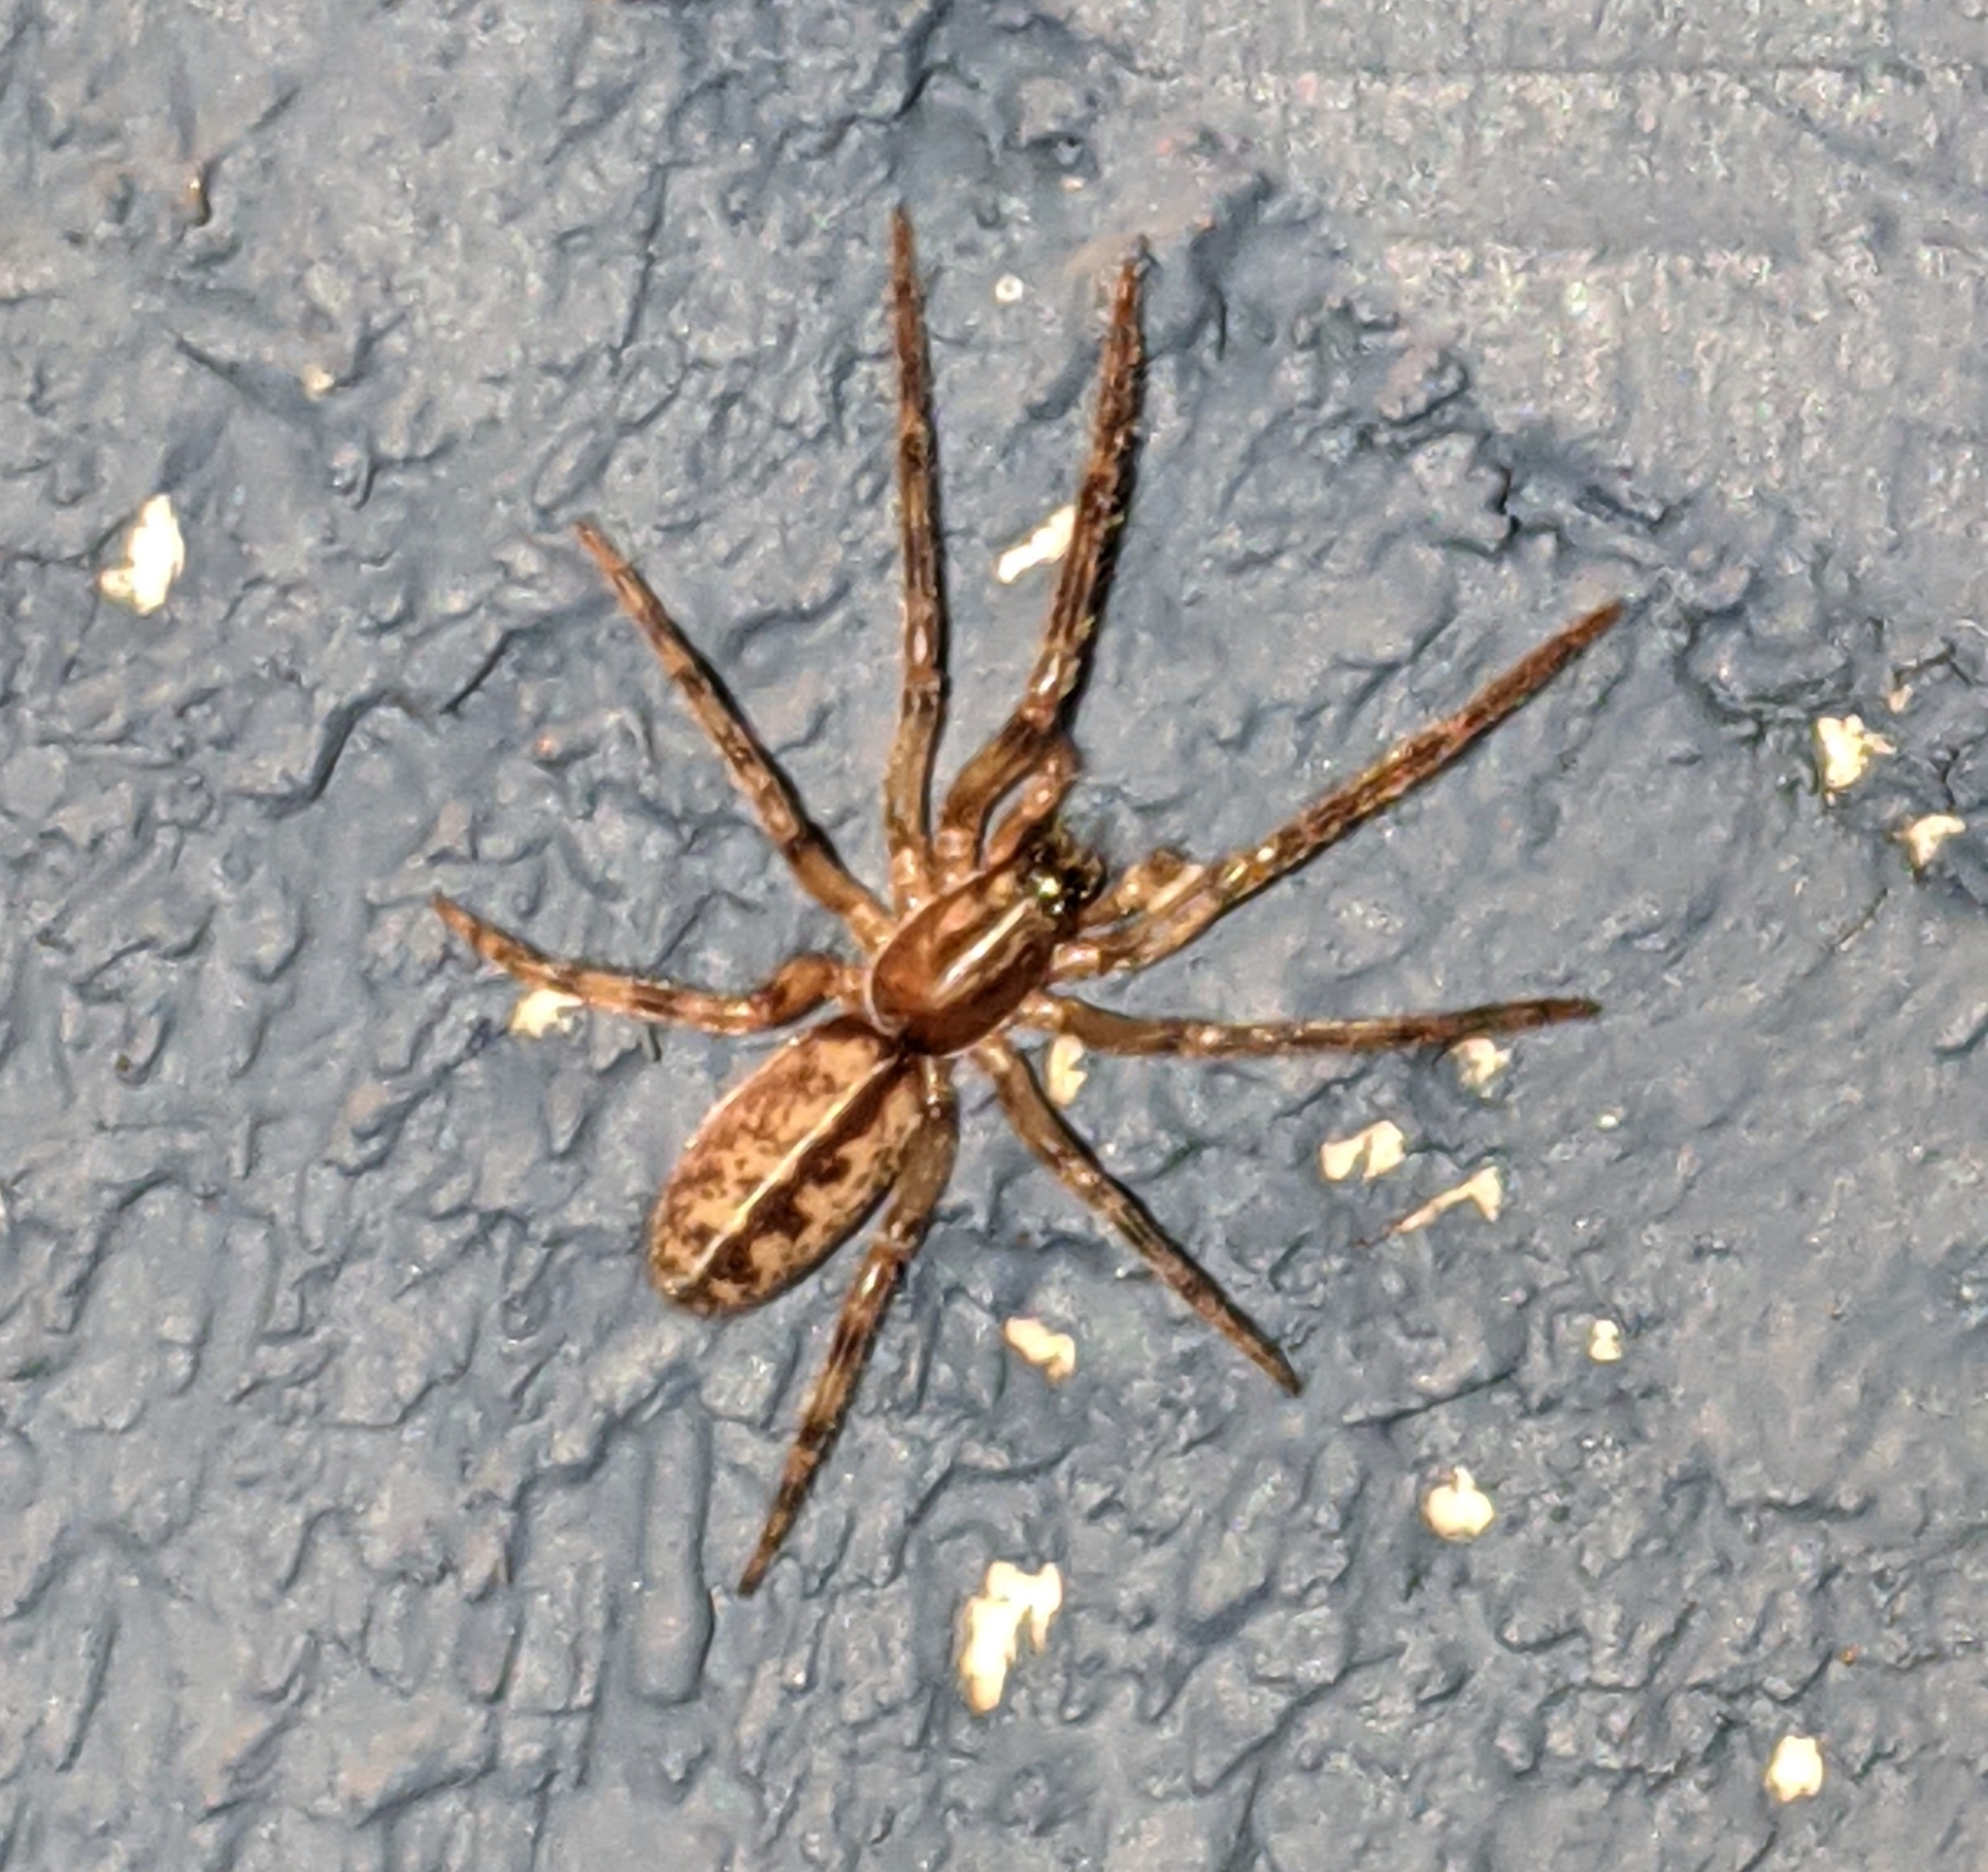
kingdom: Animalia
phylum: Arthropoda
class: Arachnida
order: Araneae
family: Segestriidae
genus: Segestria
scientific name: Segestria pacifica
